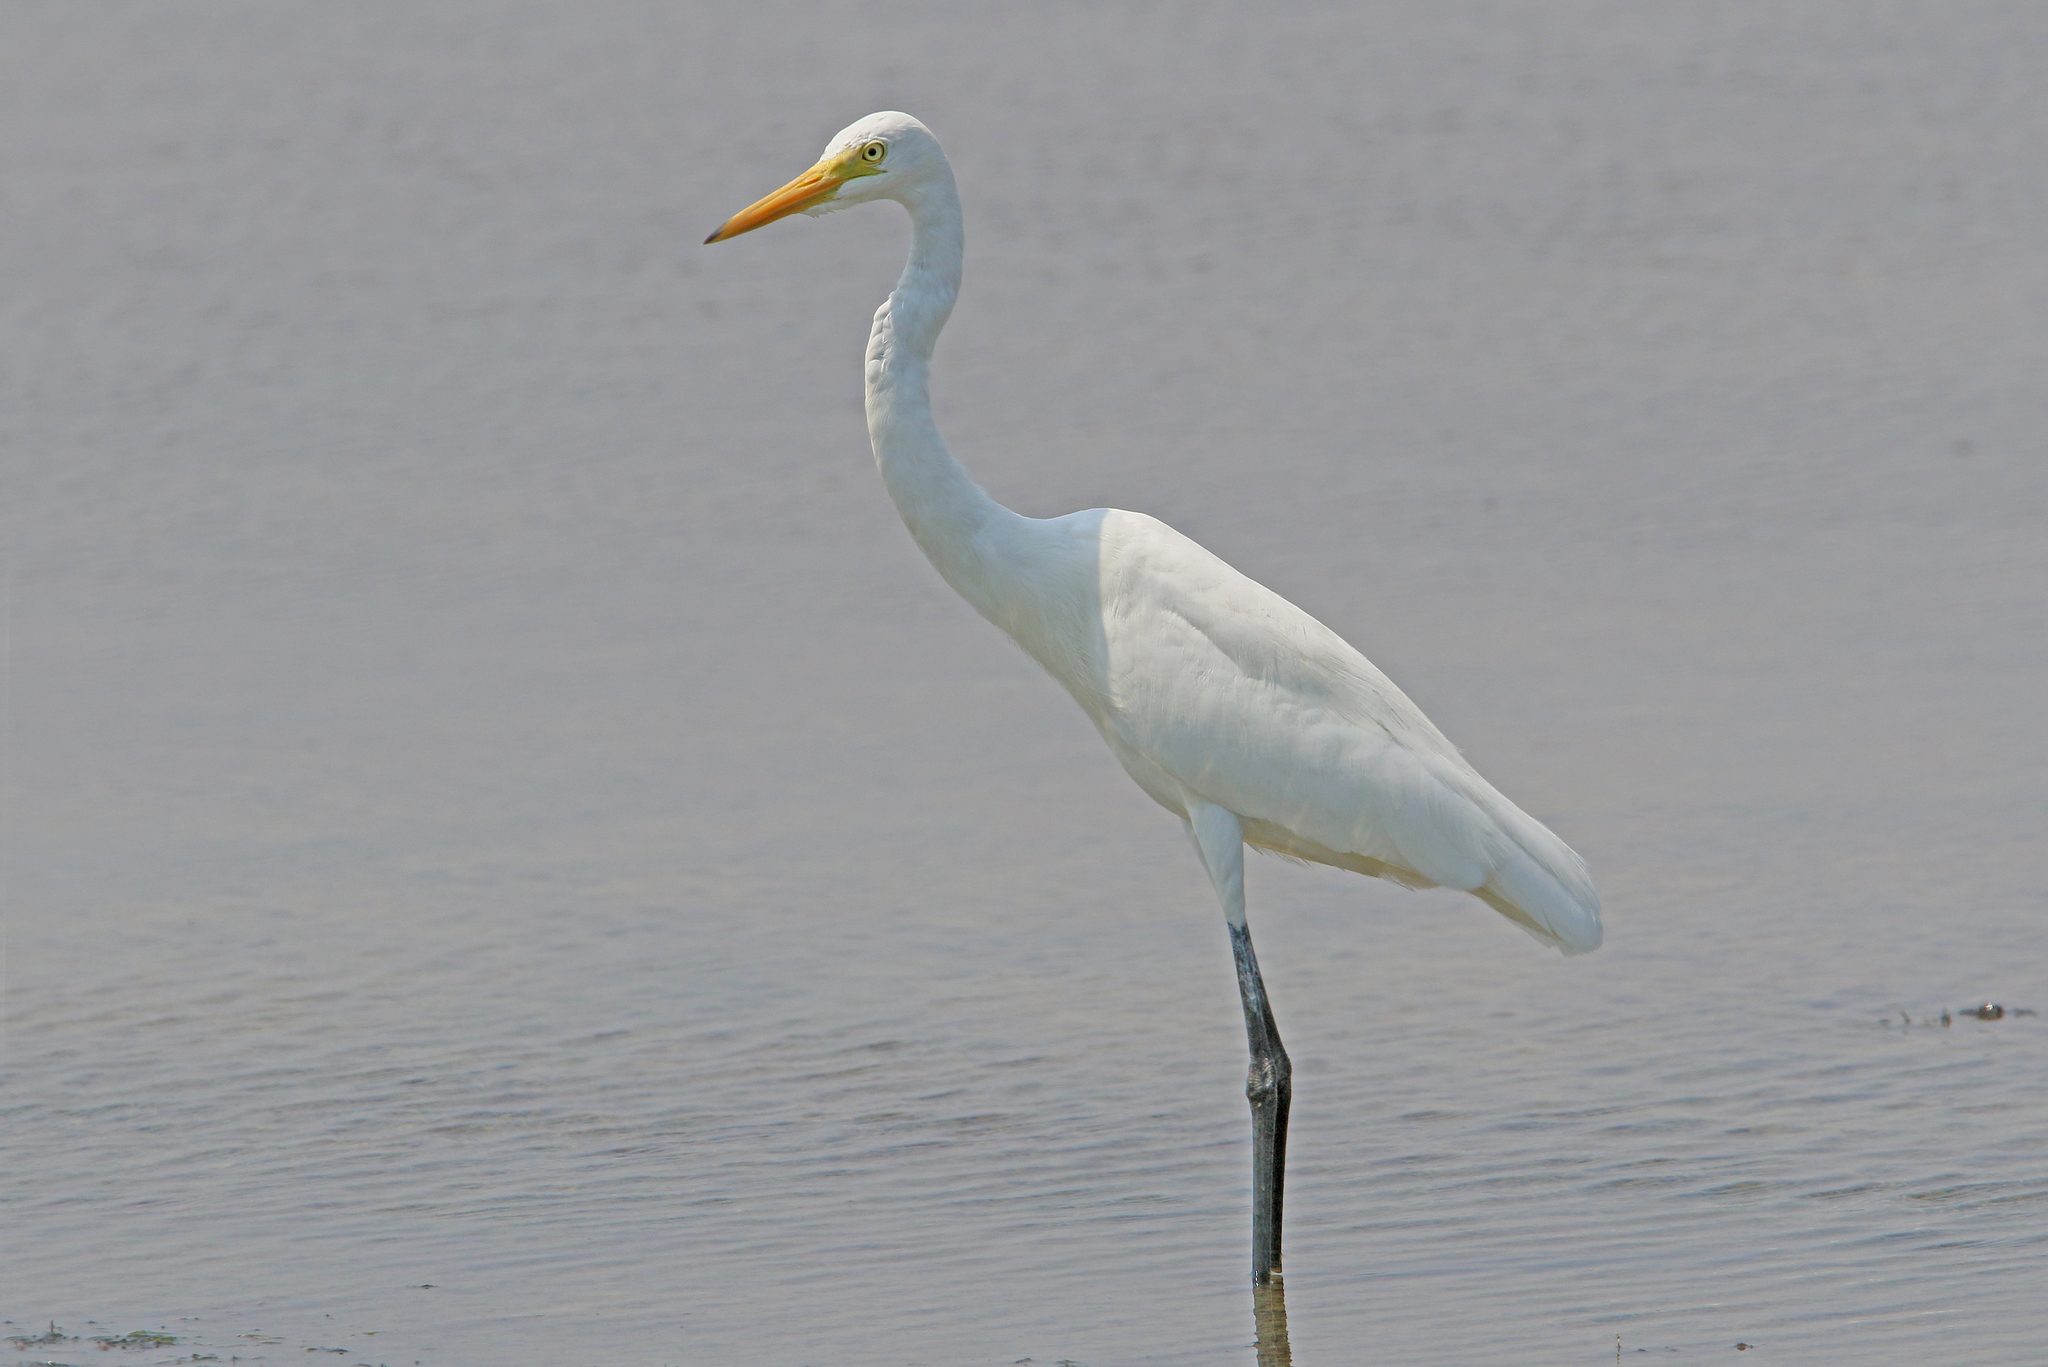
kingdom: Animalia
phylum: Chordata
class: Aves
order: Pelecaniformes
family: Ardeidae
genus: Egretta
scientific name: Egretta intermedia
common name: Intermediate egret
